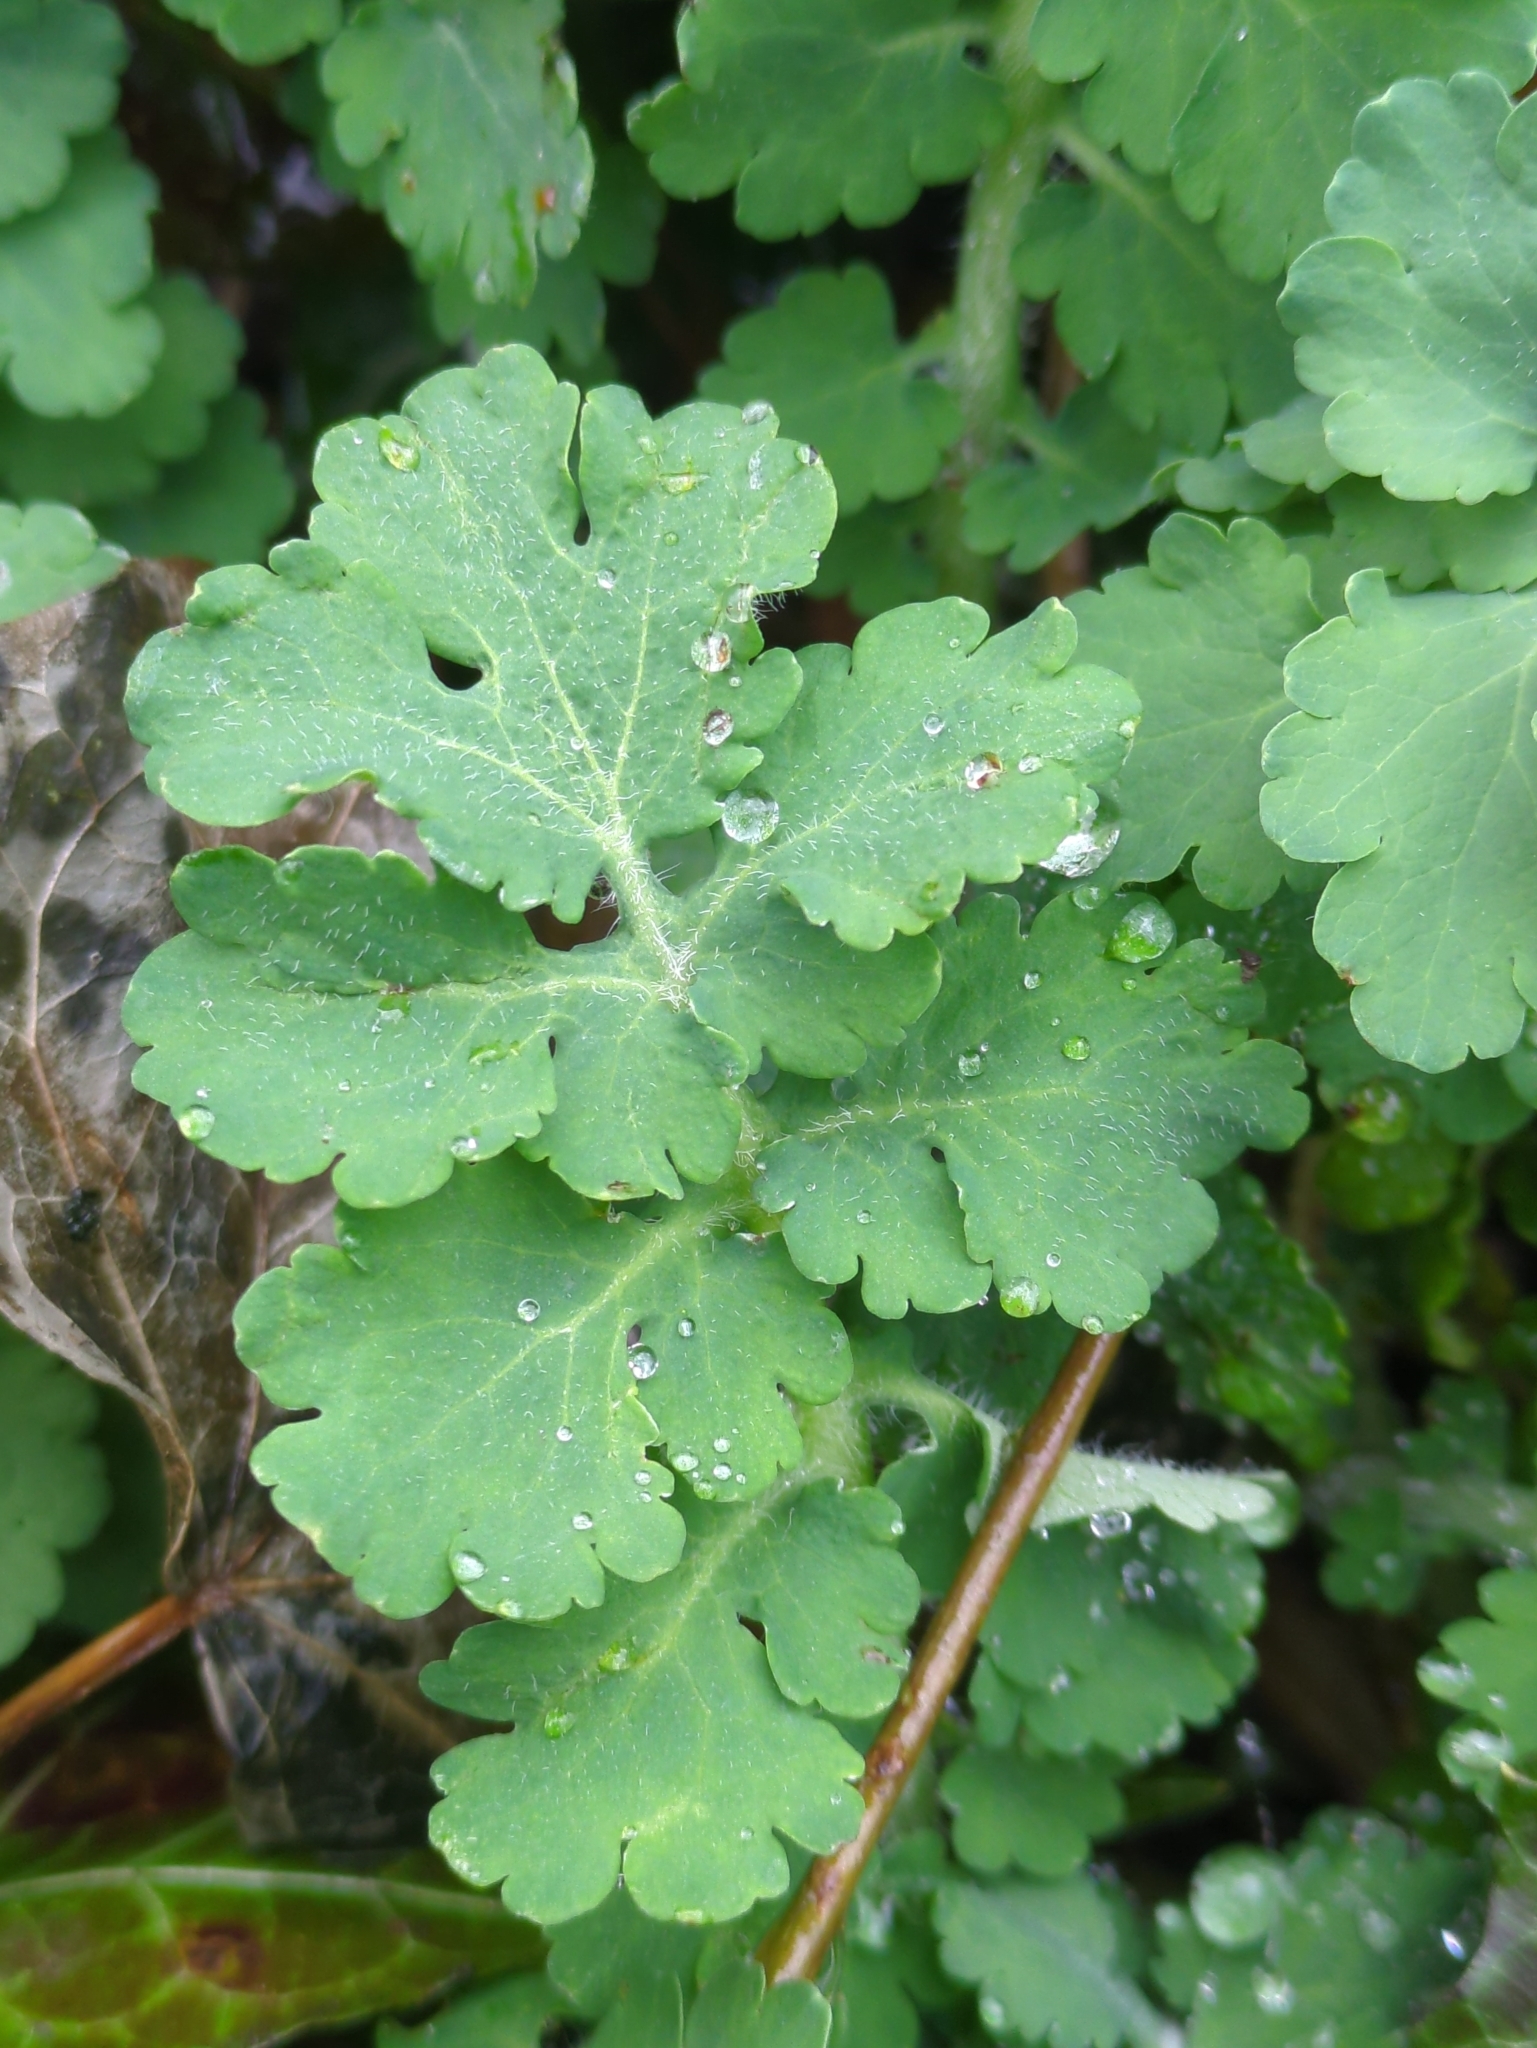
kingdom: Plantae
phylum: Tracheophyta
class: Magnoliopsida
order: Ranunculales
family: Papaveraceae
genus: Chelidonium
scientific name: Chelidonium majus
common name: Greater celandine
